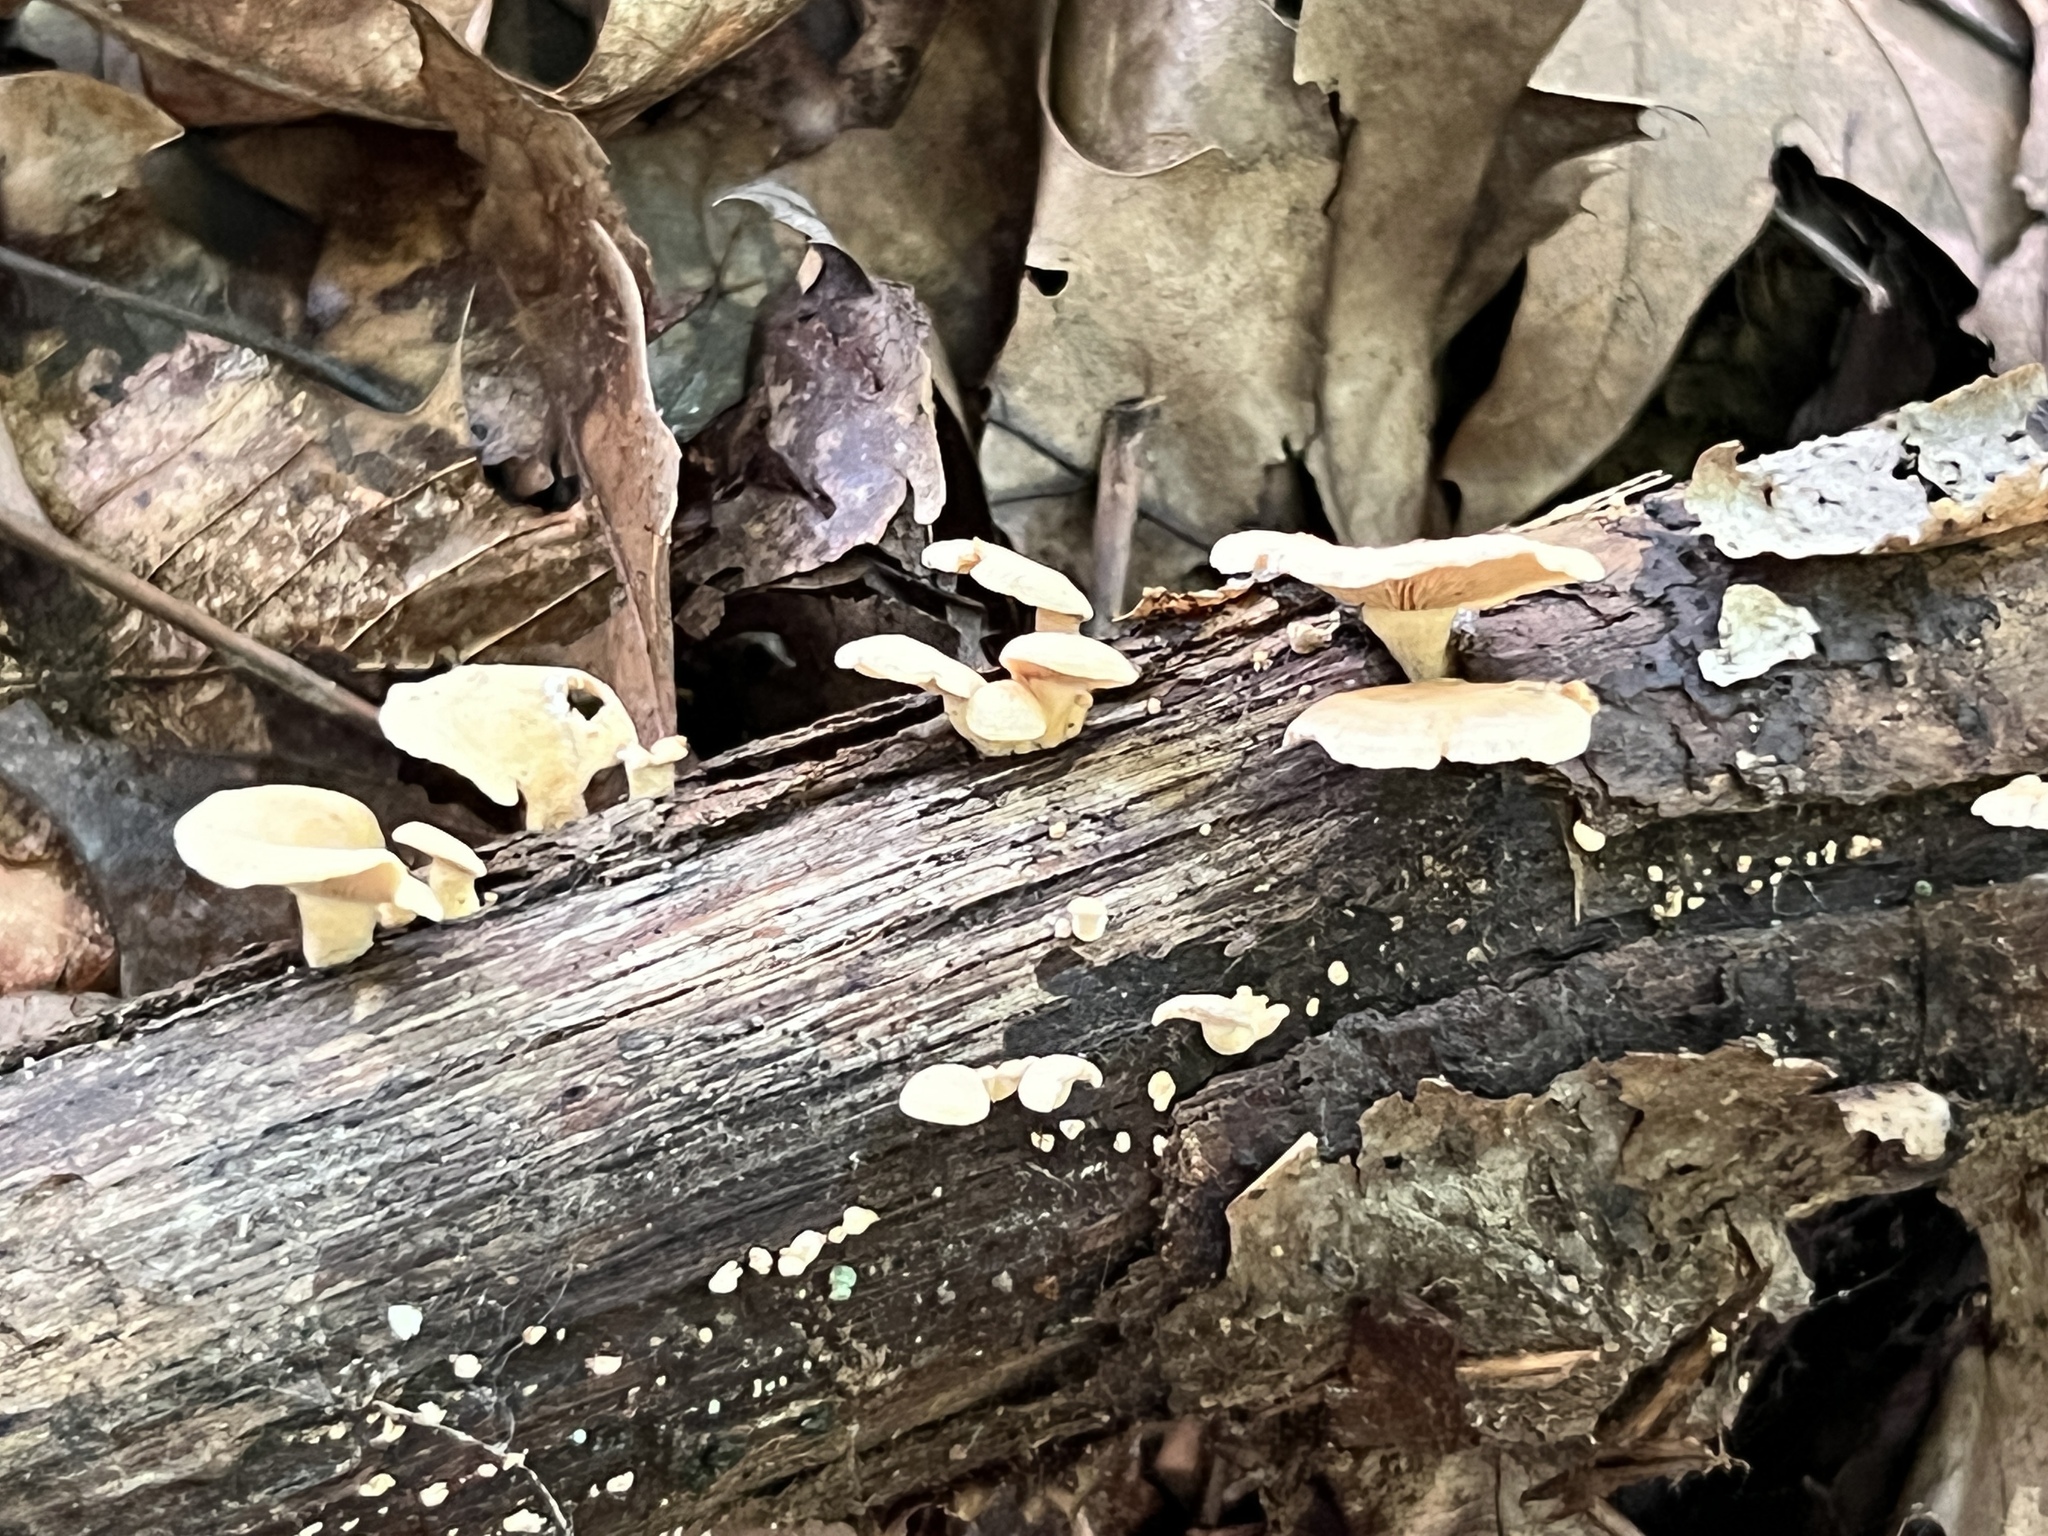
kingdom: Fungi
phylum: Basidiomycota
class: Agaricomycetes
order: Agaricales
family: Mycenaceae
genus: Panellus
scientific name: Panellus stipticus
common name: Bitter oysterling
